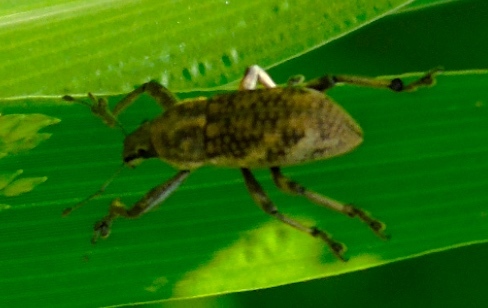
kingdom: Animalia
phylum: Arthropoda
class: Insecta
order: Coleoptera
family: Curculionidae
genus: Epicaerus
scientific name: Epicaerus
